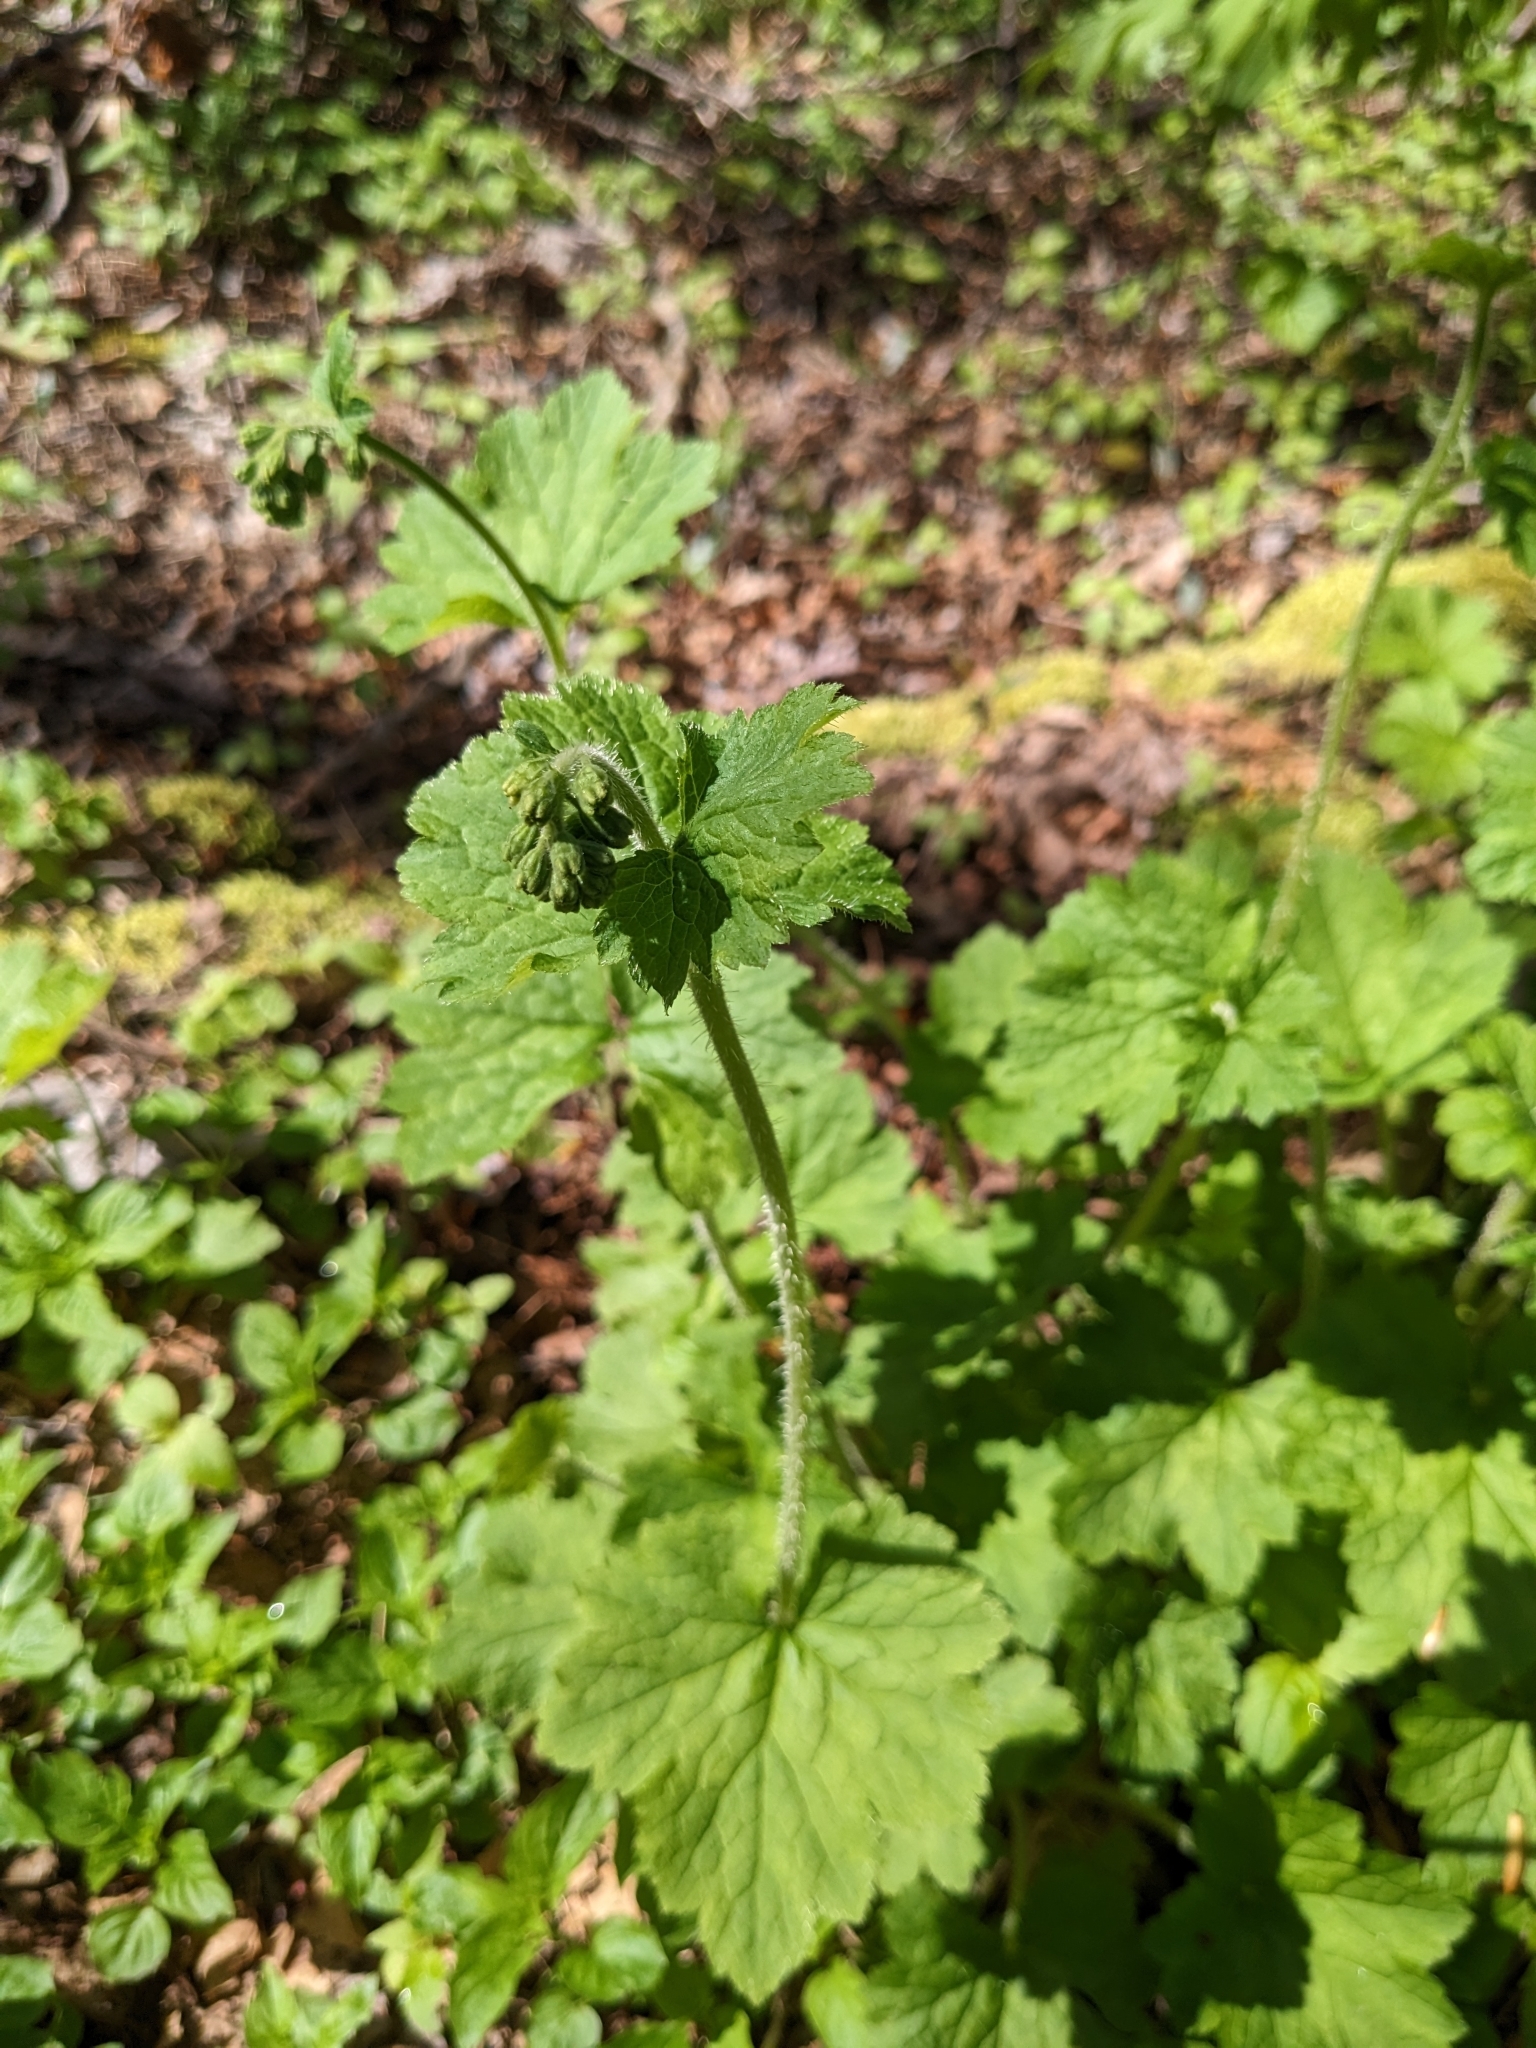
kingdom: Plantae
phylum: Tracheophyta
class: Magnoliopsida
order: Saxifragales
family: Saxifragaceae
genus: Tellima
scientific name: Tellima grandiflora
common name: Fringecups
